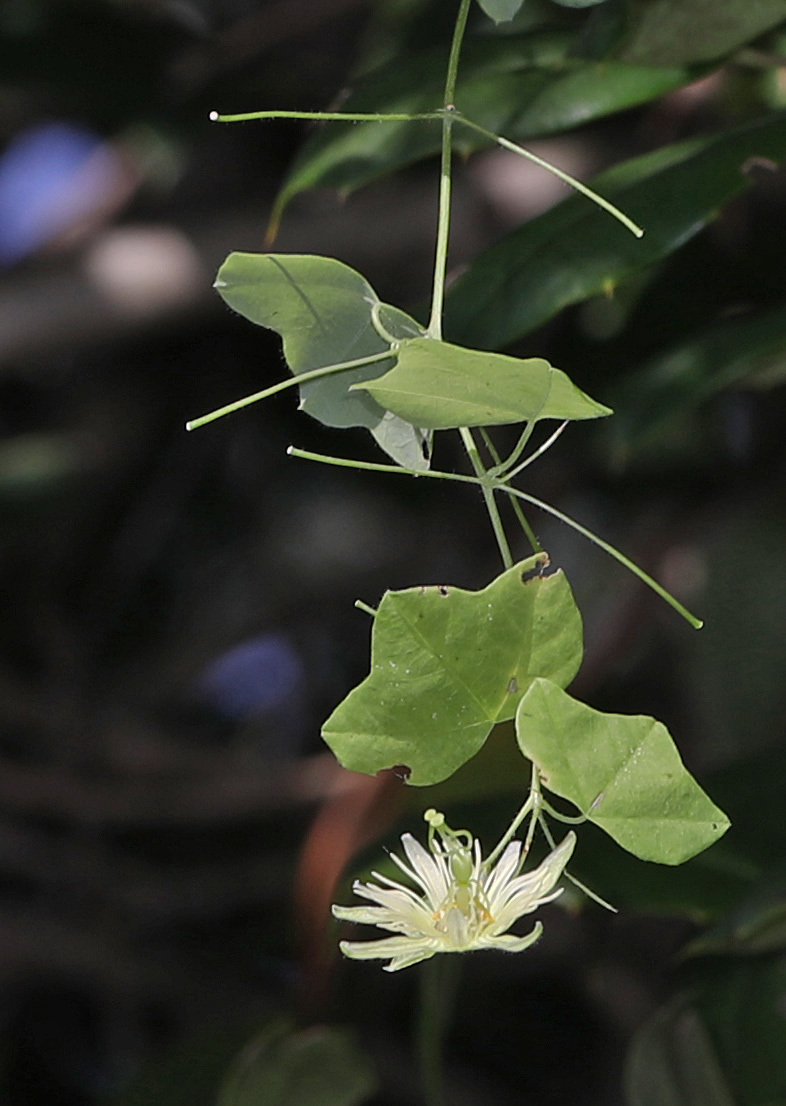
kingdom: Plantae
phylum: Tracheophyta
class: Magnoliopsida
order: Malpighiales
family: Passifloraceae
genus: Passiflora
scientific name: Passiflora lutea
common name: Yellow passionflower
